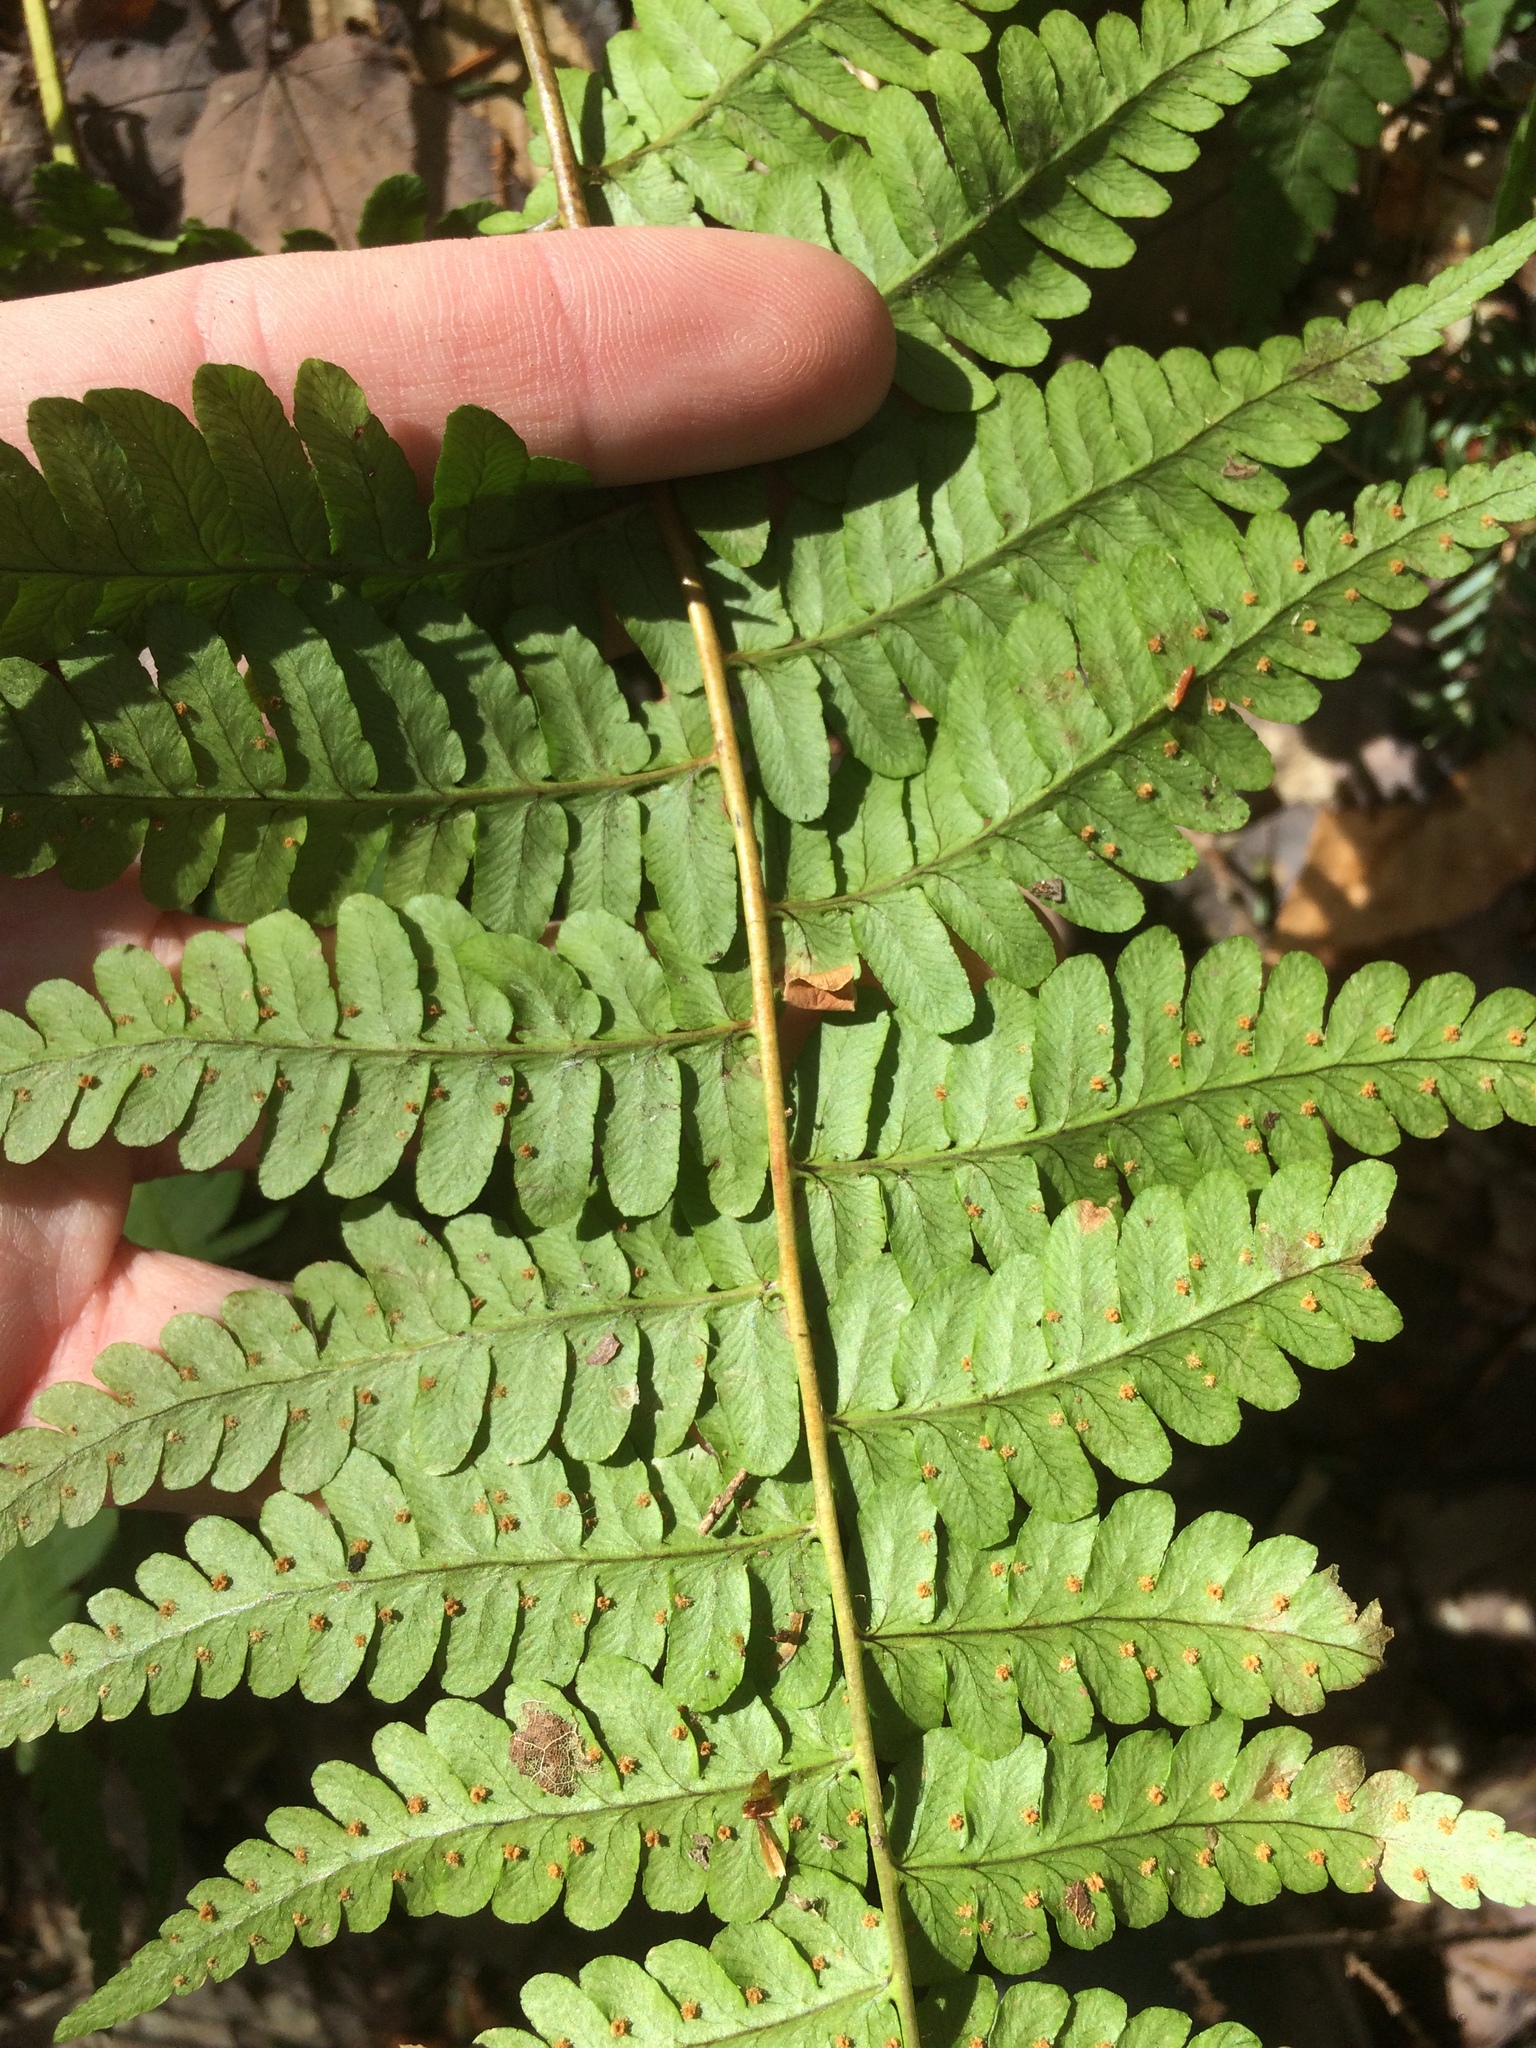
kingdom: Plantae
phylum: Tracheophyta
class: Polypodiopsida
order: Polypodiales
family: Dryopteridaceae
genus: Dryopteris
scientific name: Dryopteris marginalis
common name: Marginal wood fern
